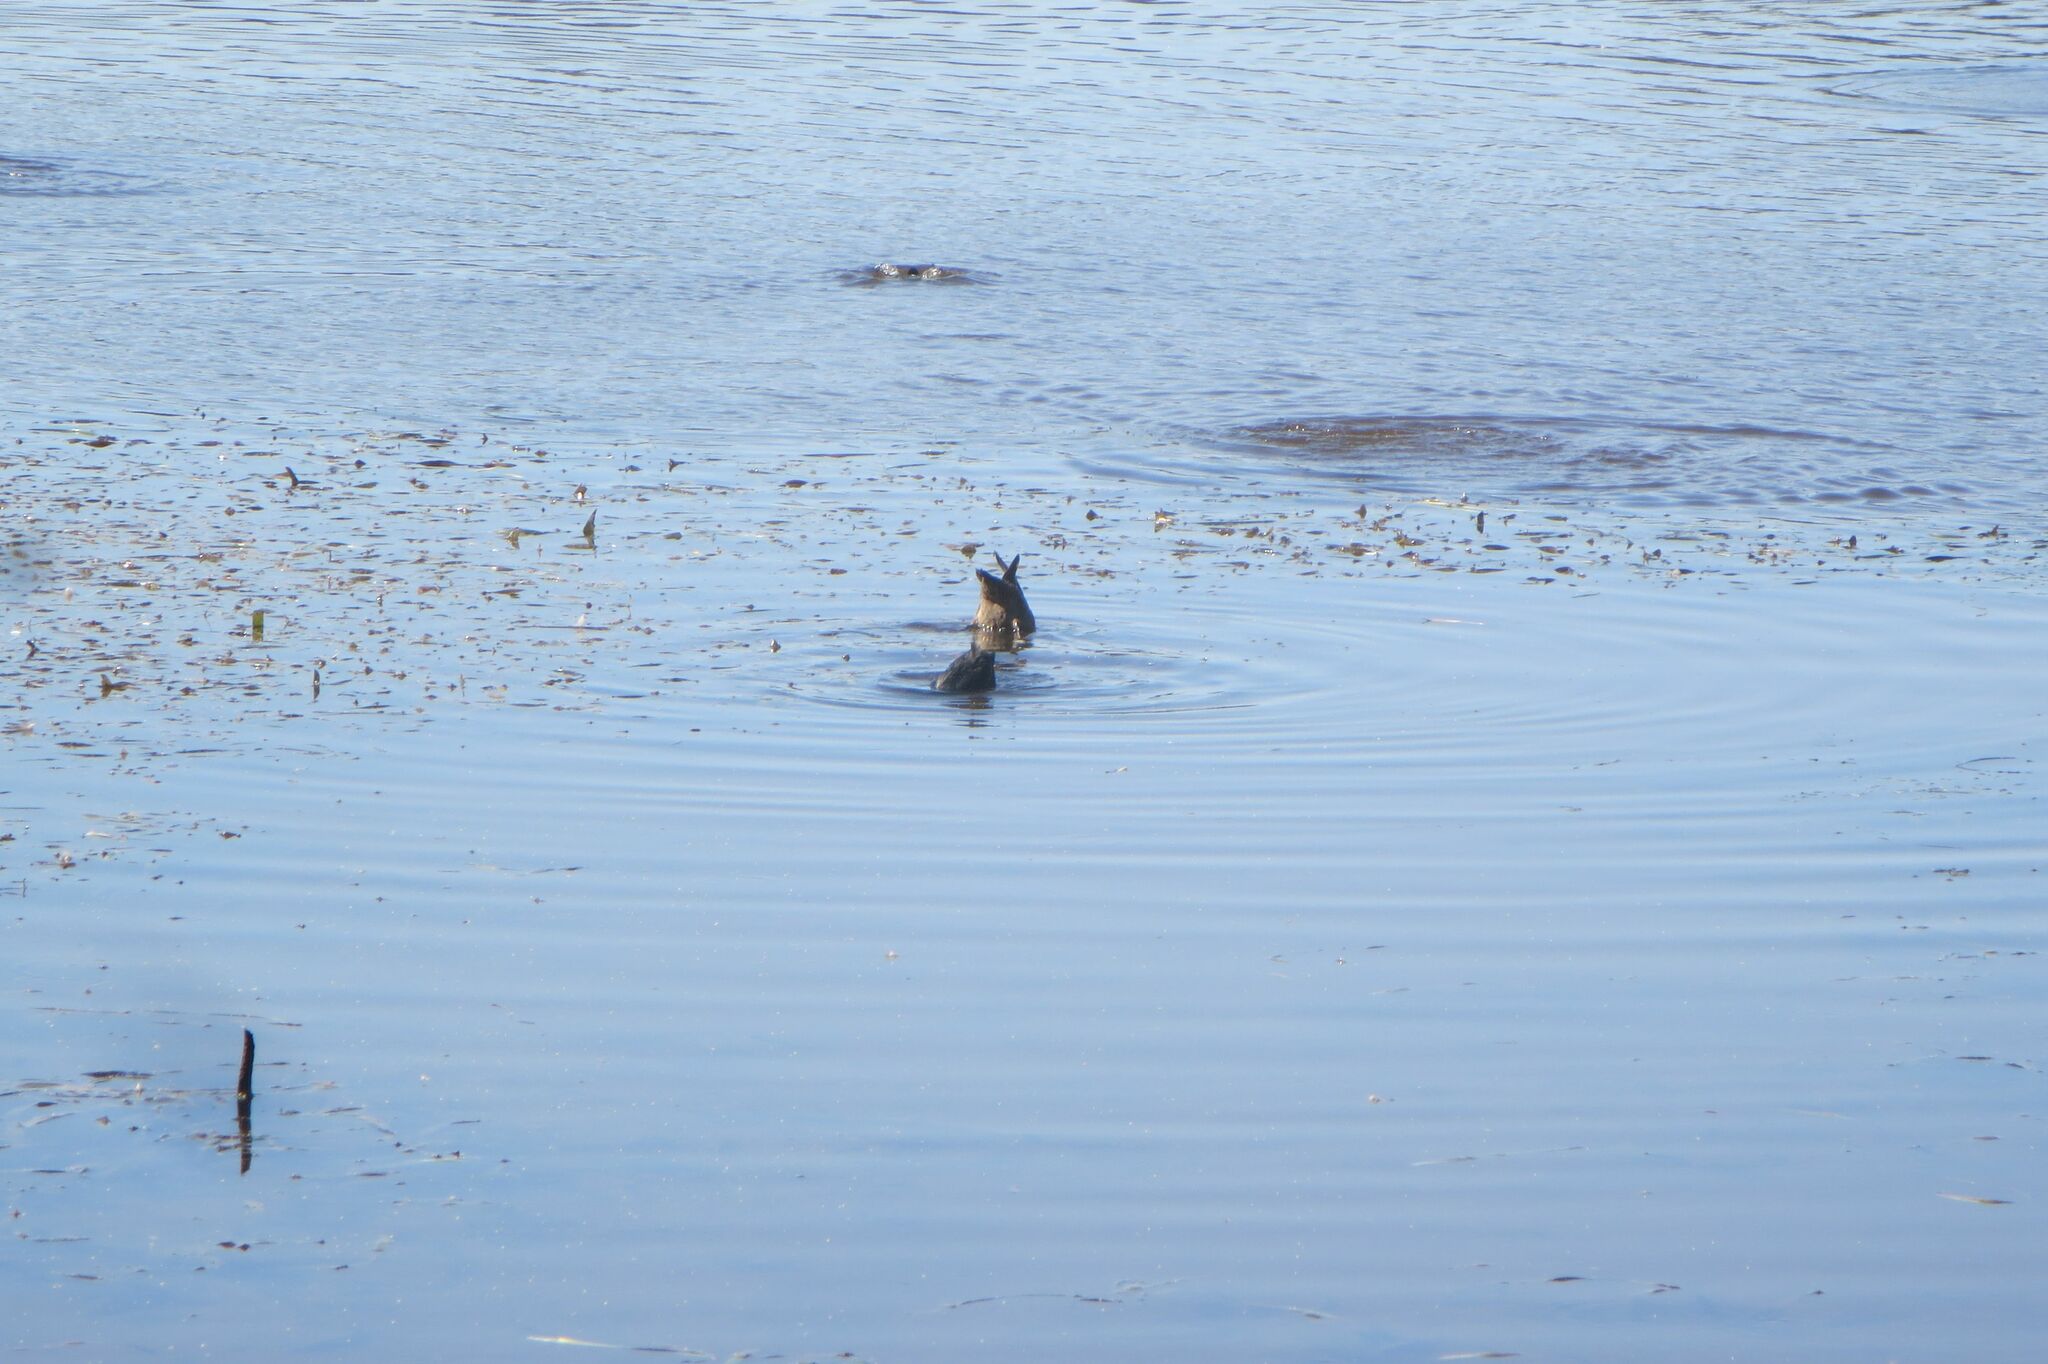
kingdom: Animalia
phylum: Chordata
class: Aves
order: Gruiformes
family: Rallidae
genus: Fulica
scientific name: Fulica atra
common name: Eurasian coot
